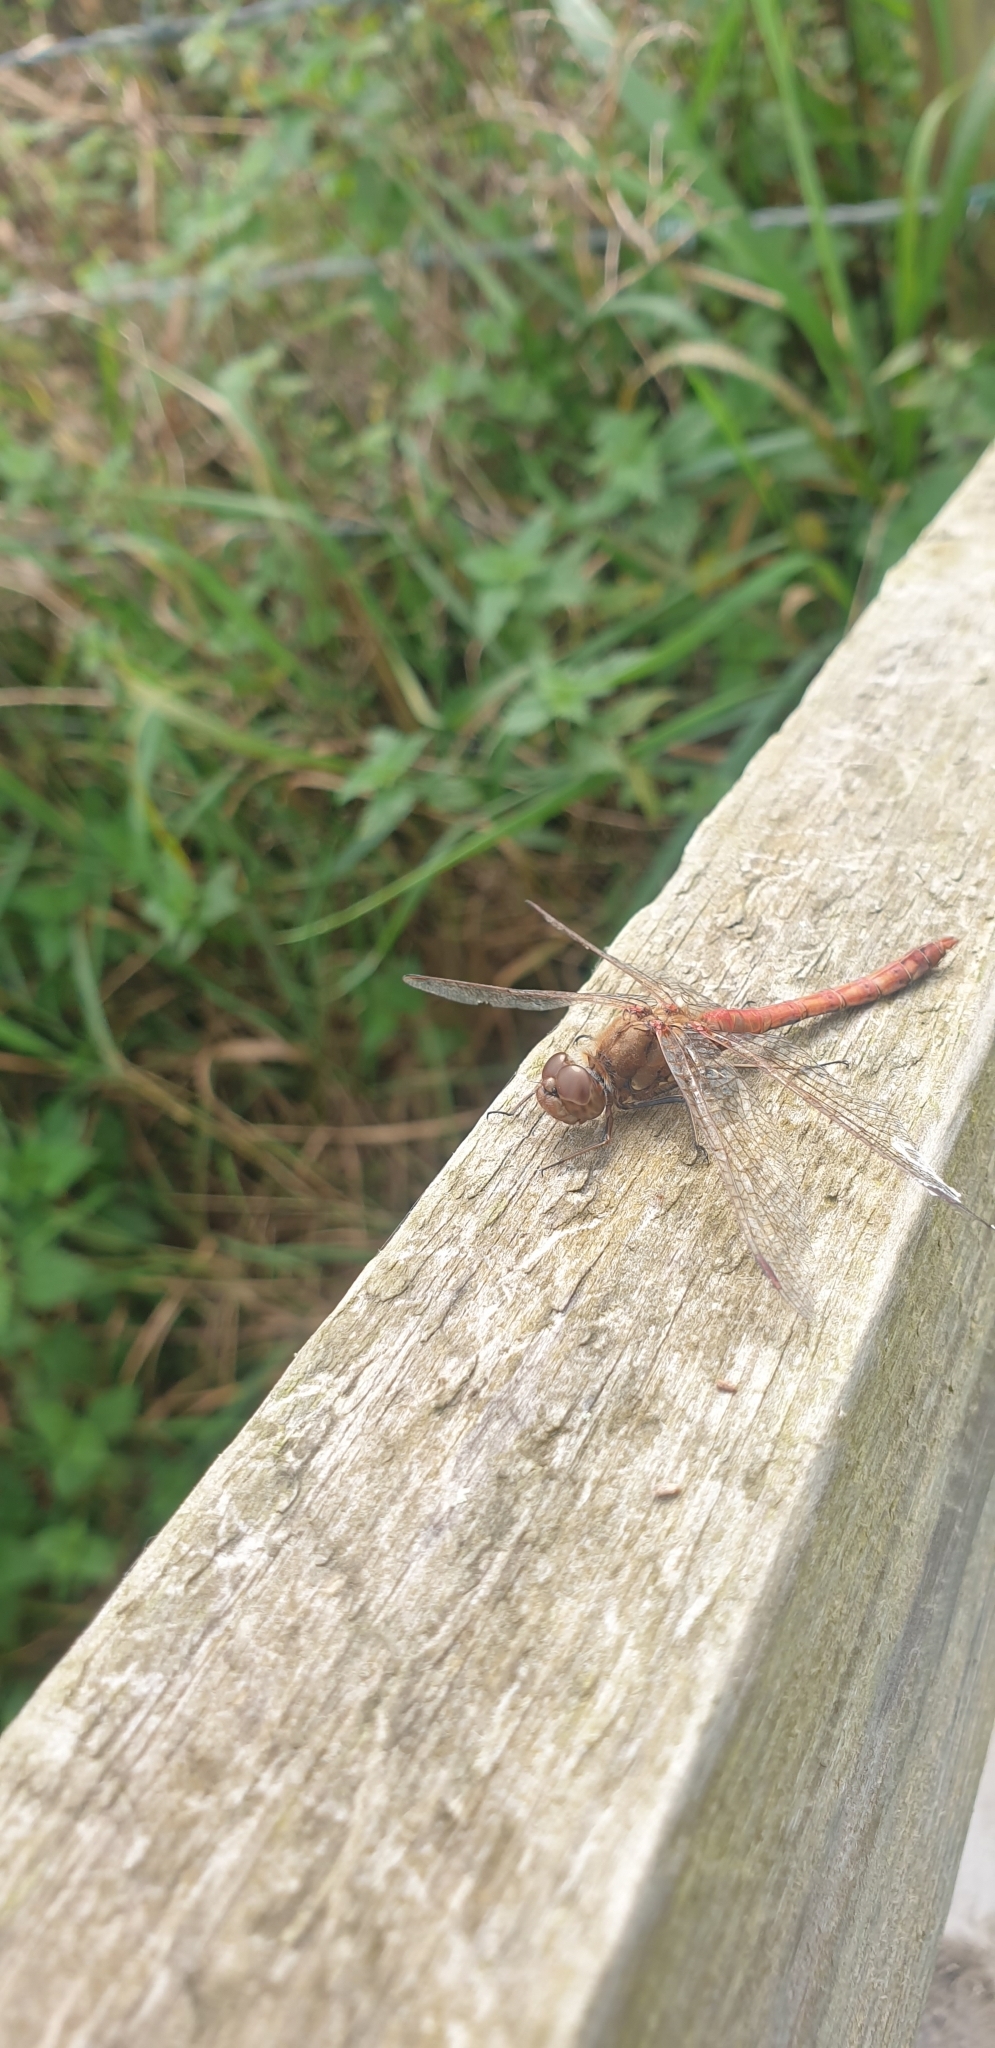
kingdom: Animalia
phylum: Arthropoda
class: Insecta
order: Odonata
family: Libellulidae
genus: Sympetrum
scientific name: Sympetrum striolatum
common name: Common darter
